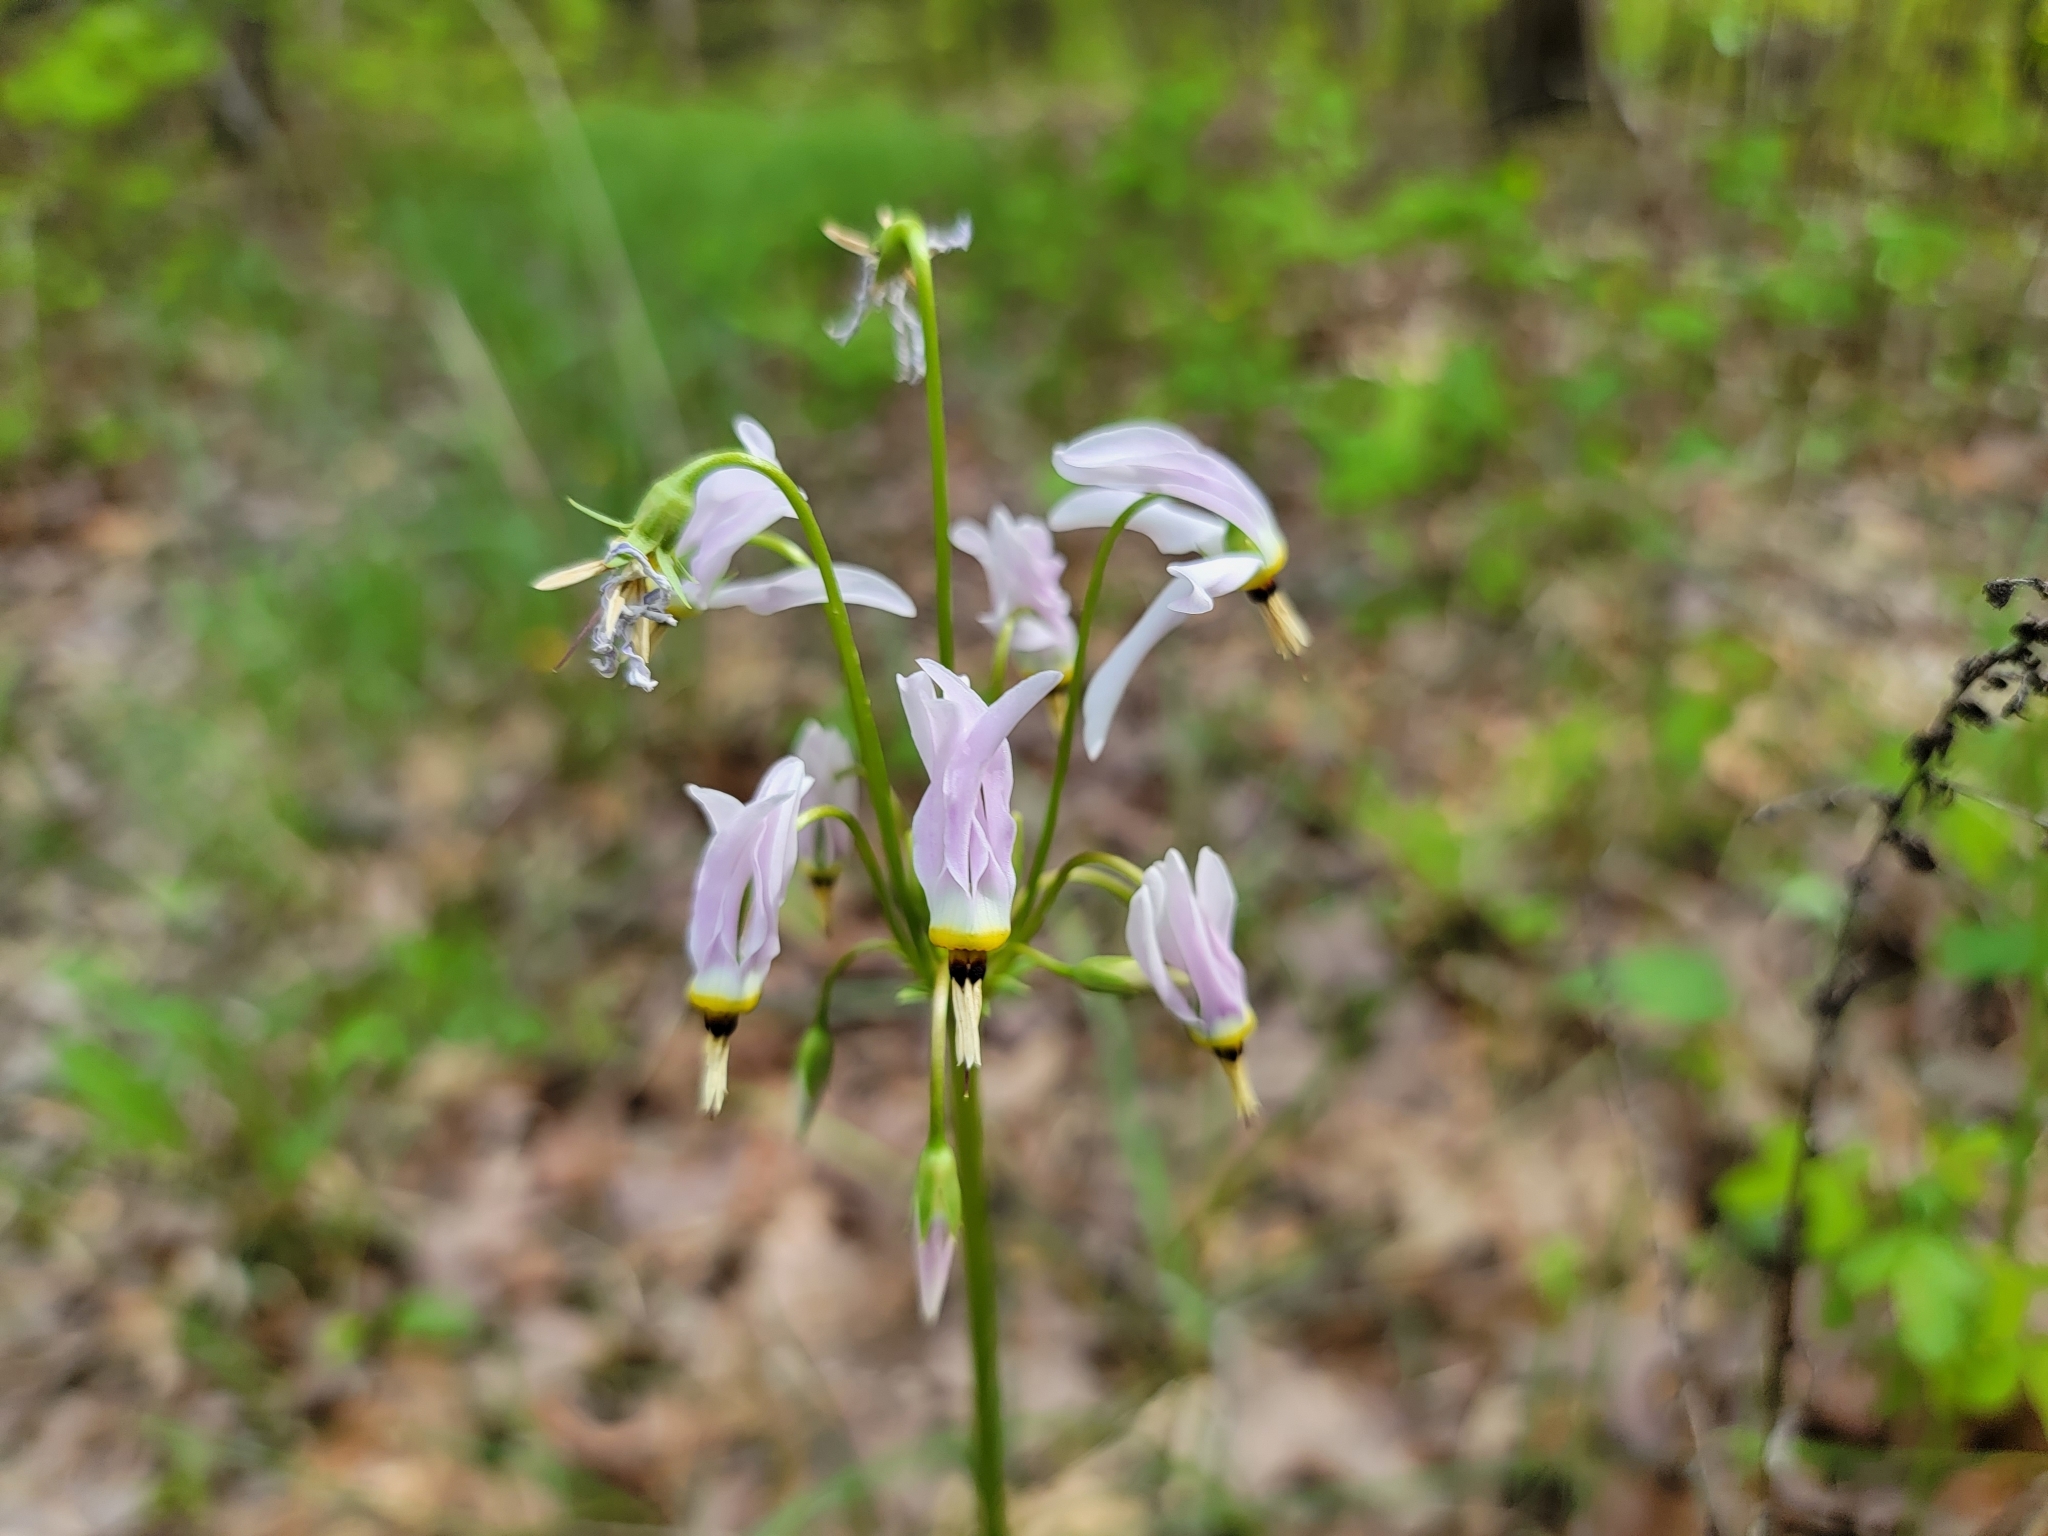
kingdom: Plantae
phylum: Tracheophyta
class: Magnoliopsida
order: Ericales
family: Primulaceae
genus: Dodecatheon
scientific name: Dodecatheon meadia
